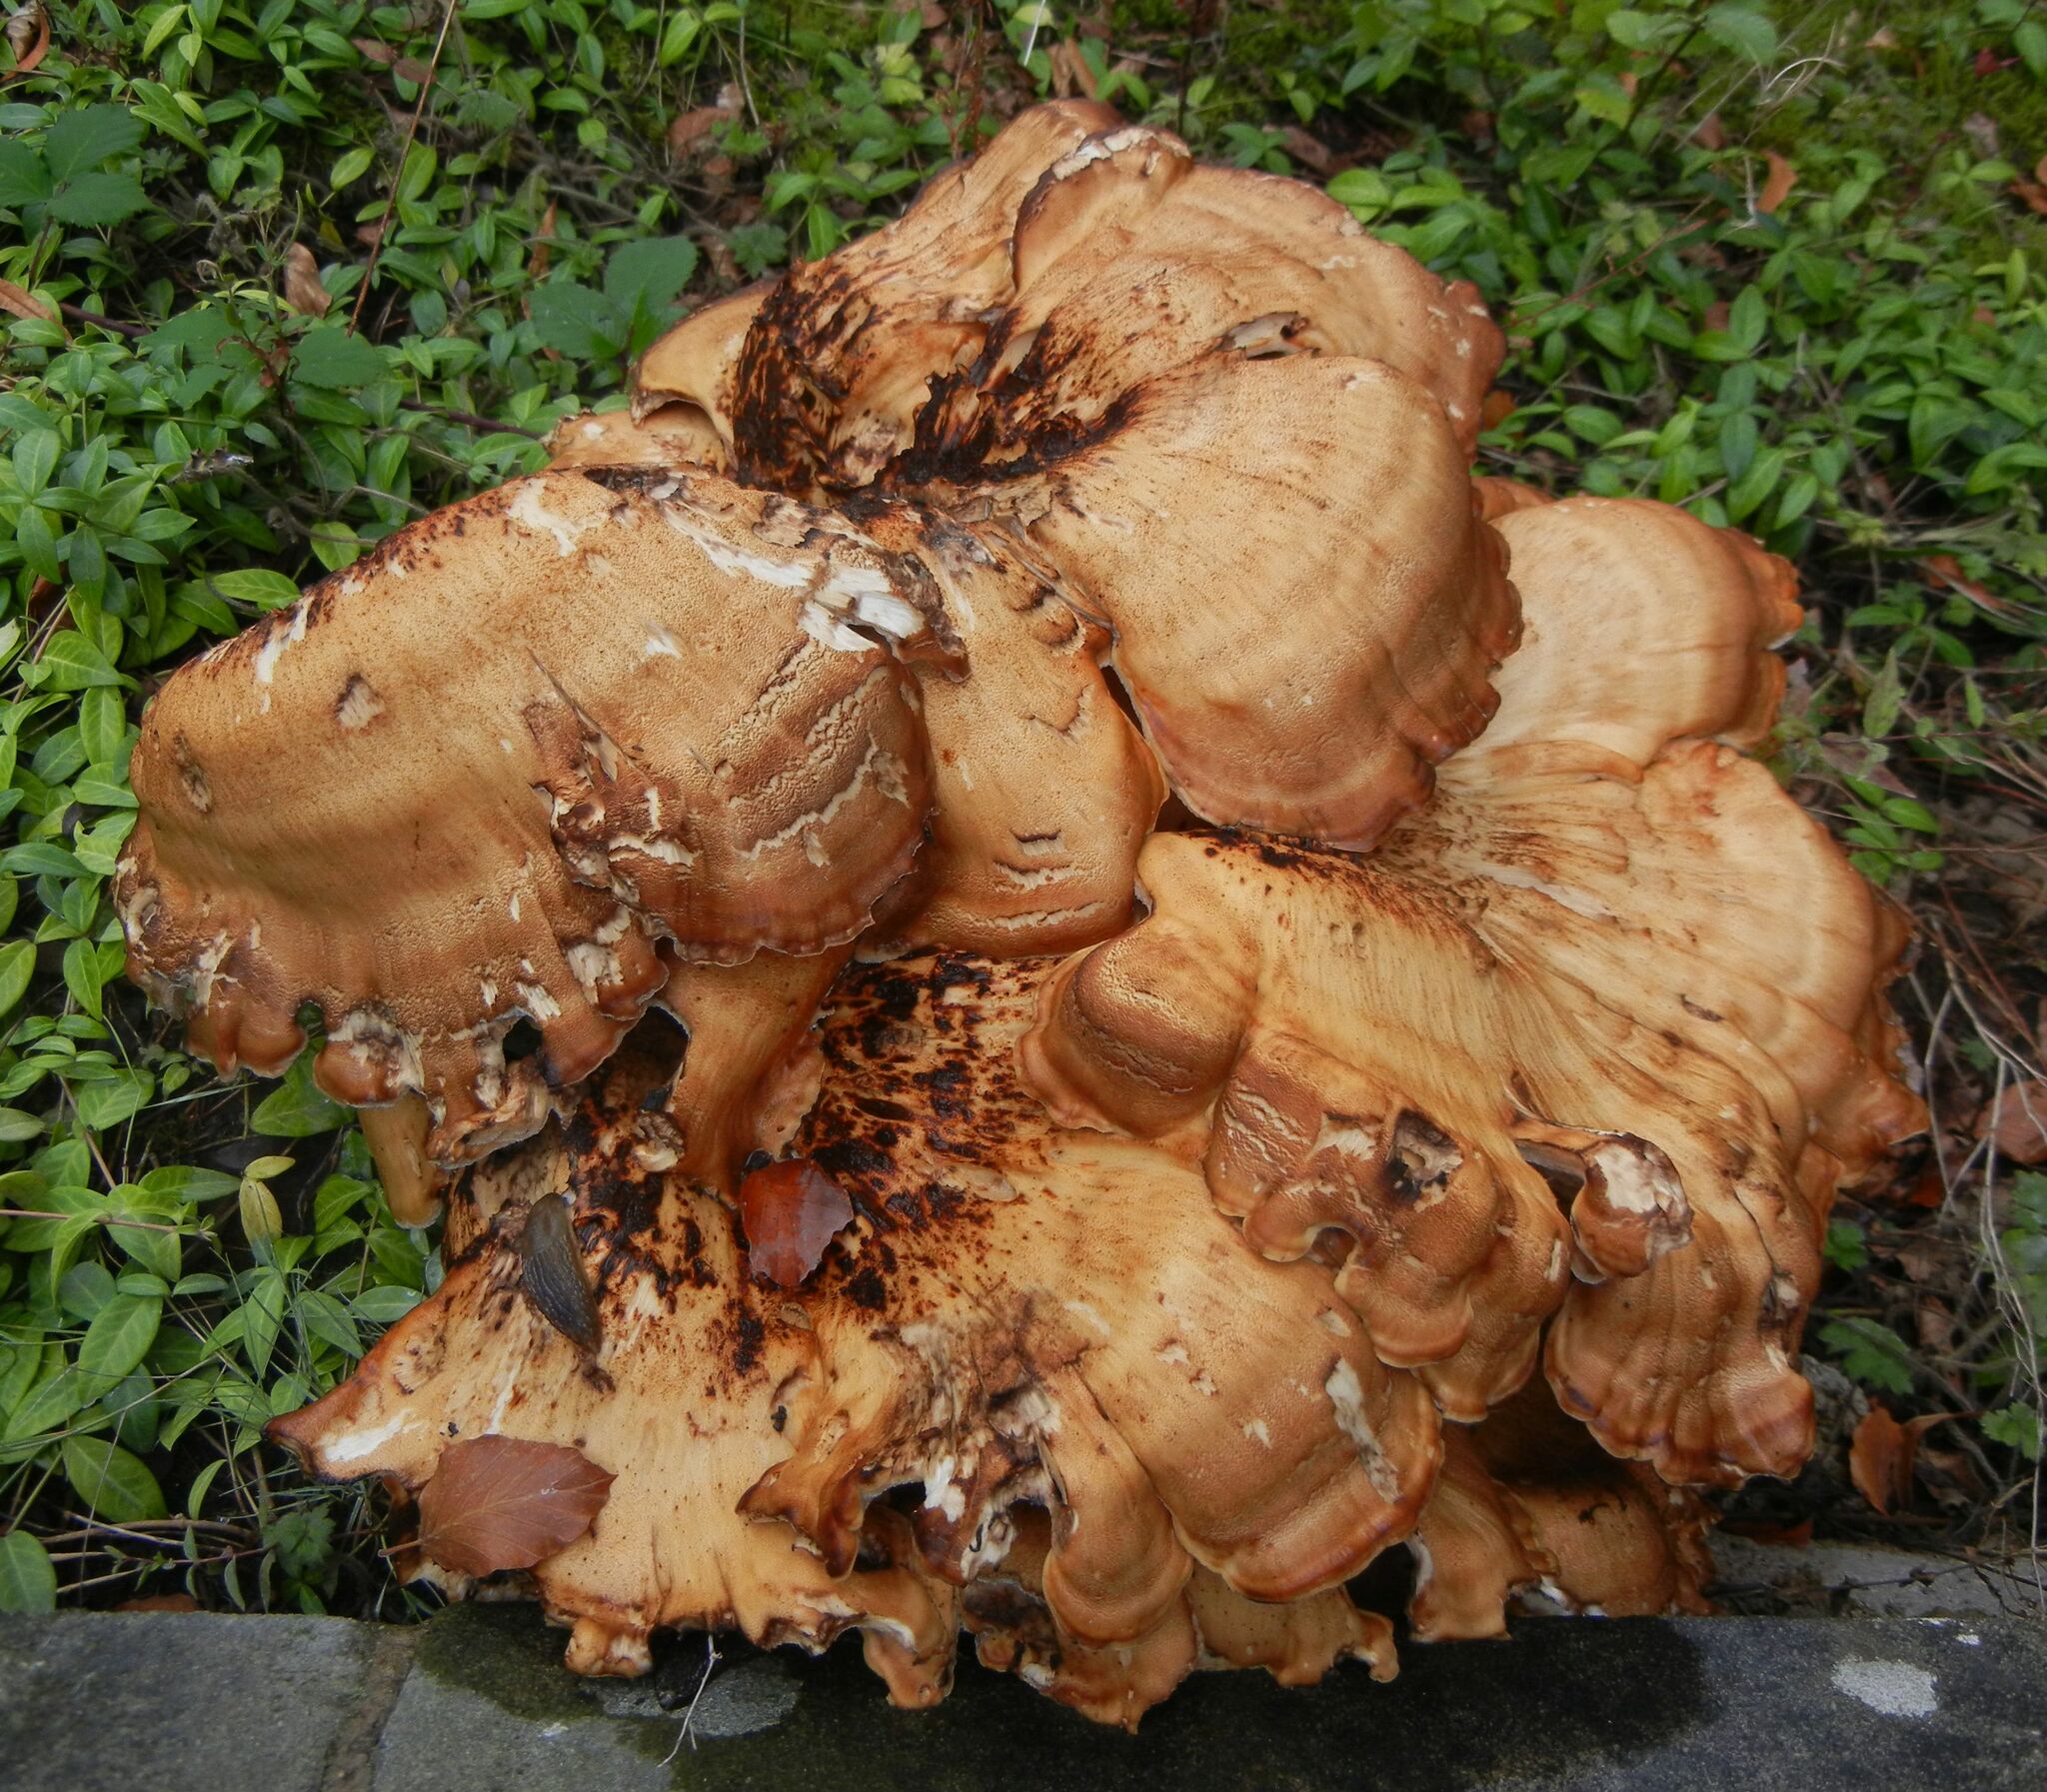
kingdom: Fungi
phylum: Basidiomycota
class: Agaricomycetes
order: Polyporales
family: Meripilaceae
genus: Meripilus
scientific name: Meripilus giganteus
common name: Giant polypore
